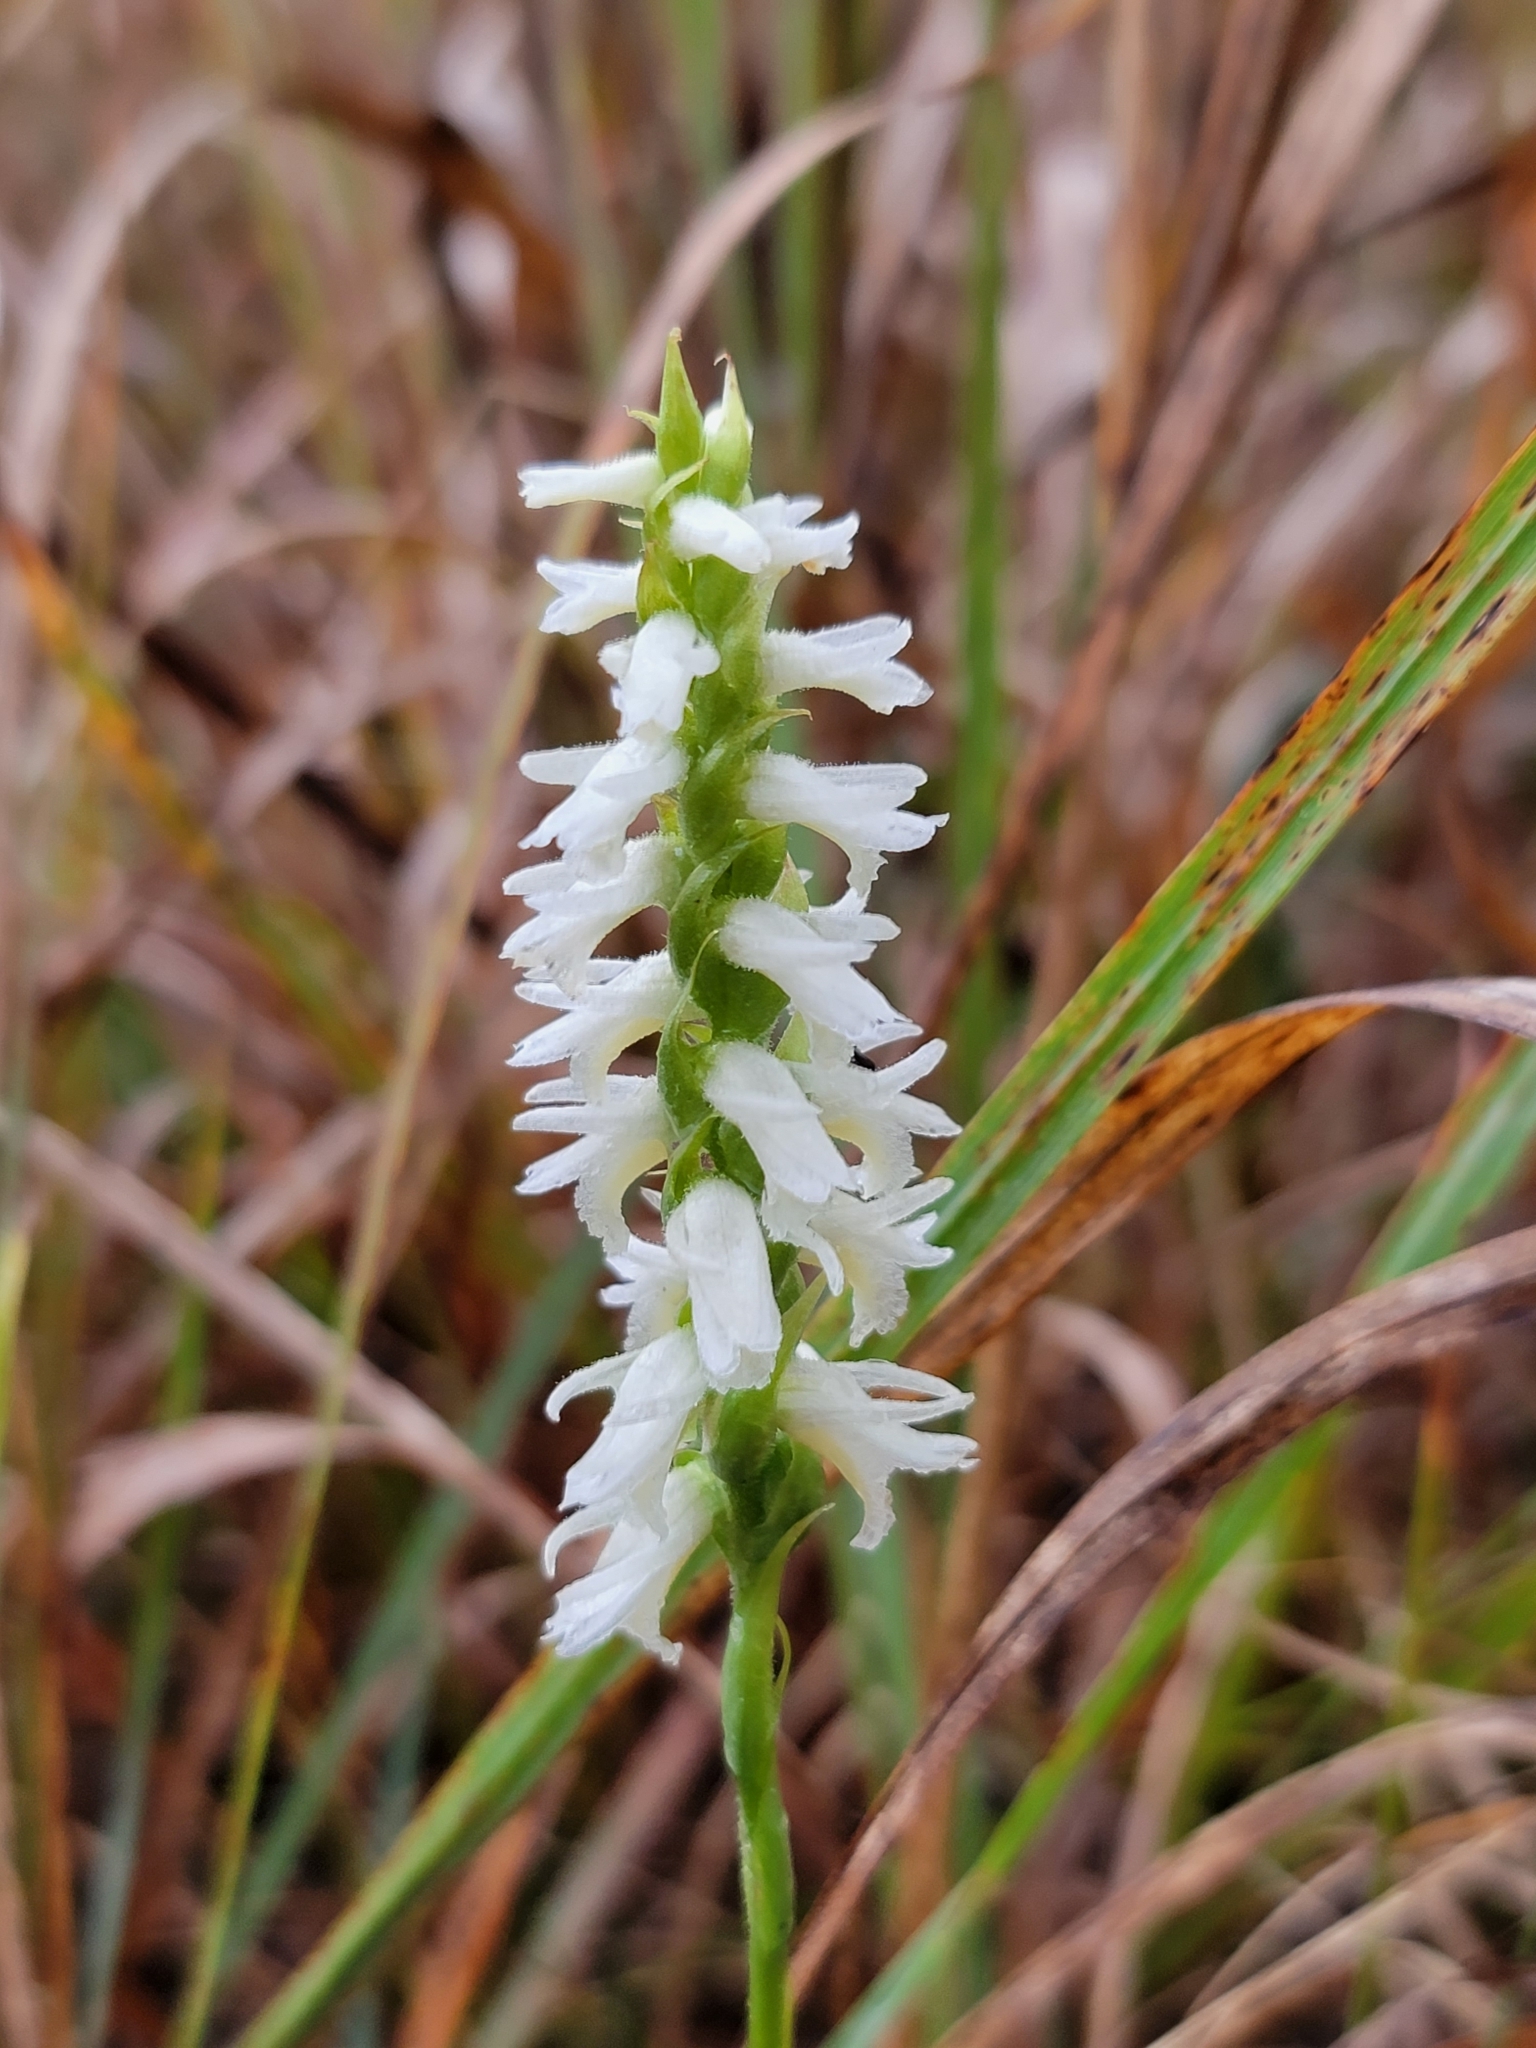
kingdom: Plantae
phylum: Tracheophyta
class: Liliopsida
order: Asparagales
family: Orchidaceae
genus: Spiranthes
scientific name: Spiranthes magnicamporum
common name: Great plains ladies'-tresses
